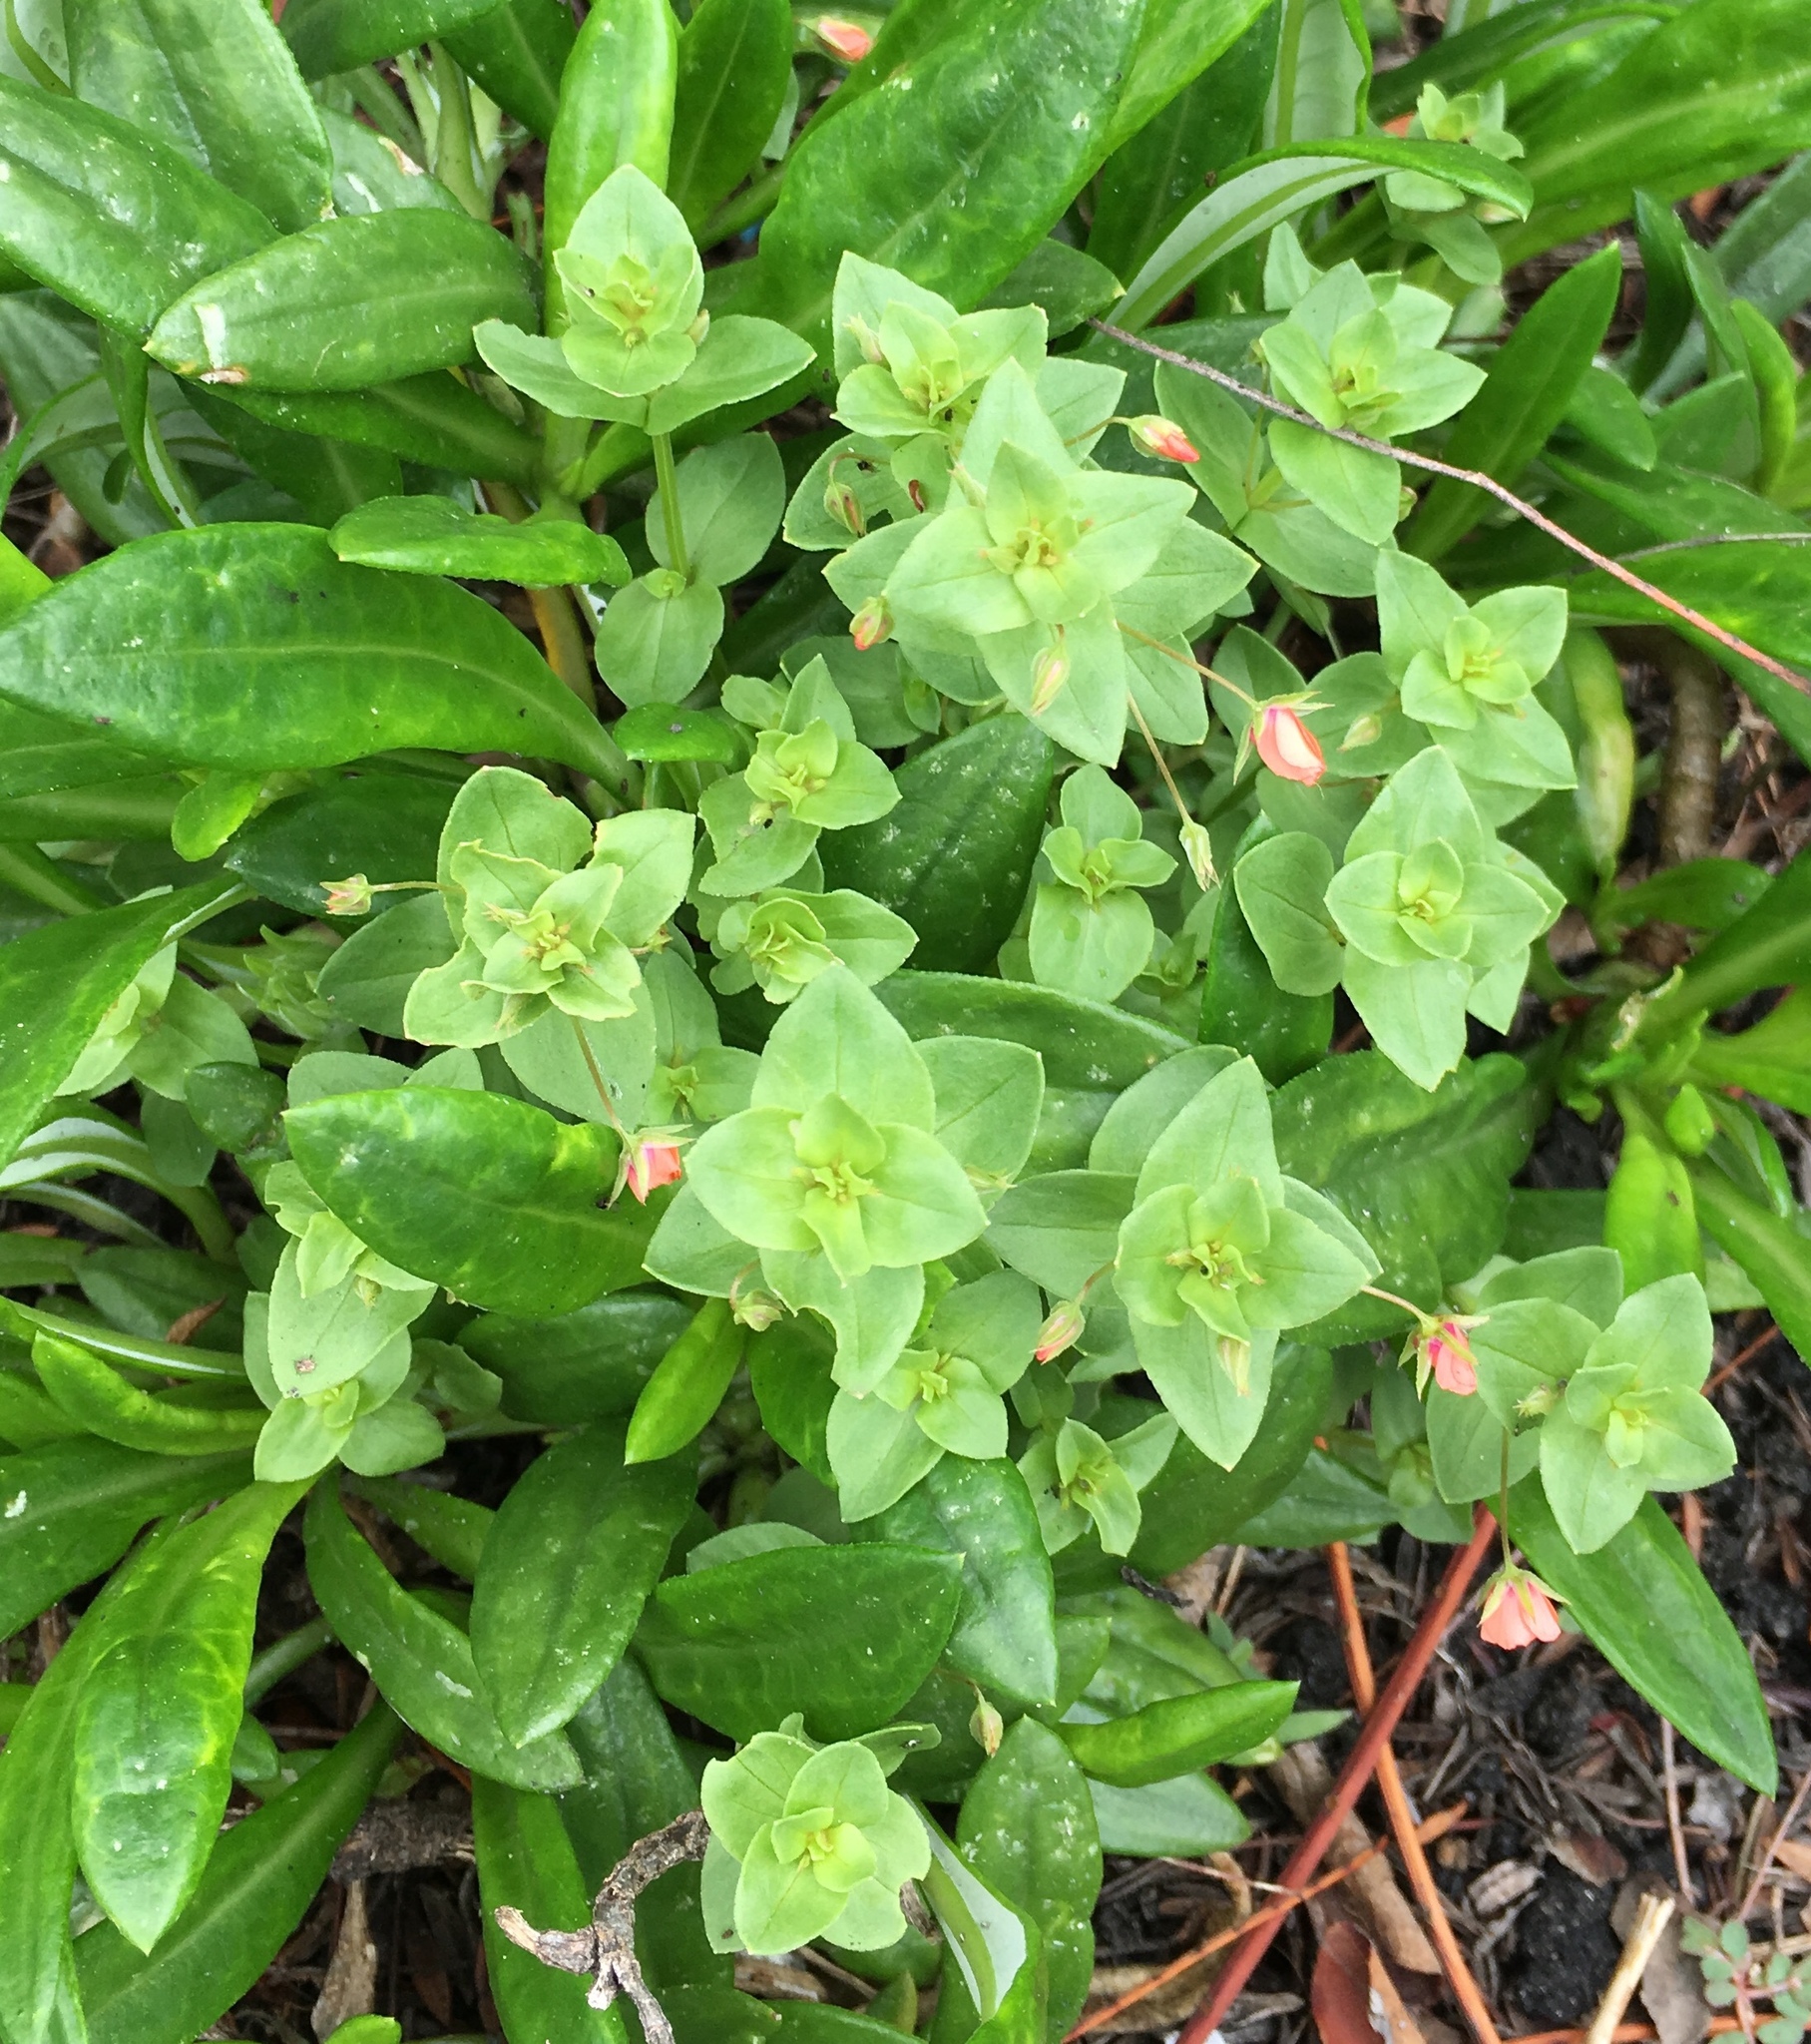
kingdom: Plantae
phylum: Tracheophyta
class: Magnoliopsida
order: Ericales
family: Primulaceae
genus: Lysimachia
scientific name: Lysimachia arvensis
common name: Scarlet pimpernel
